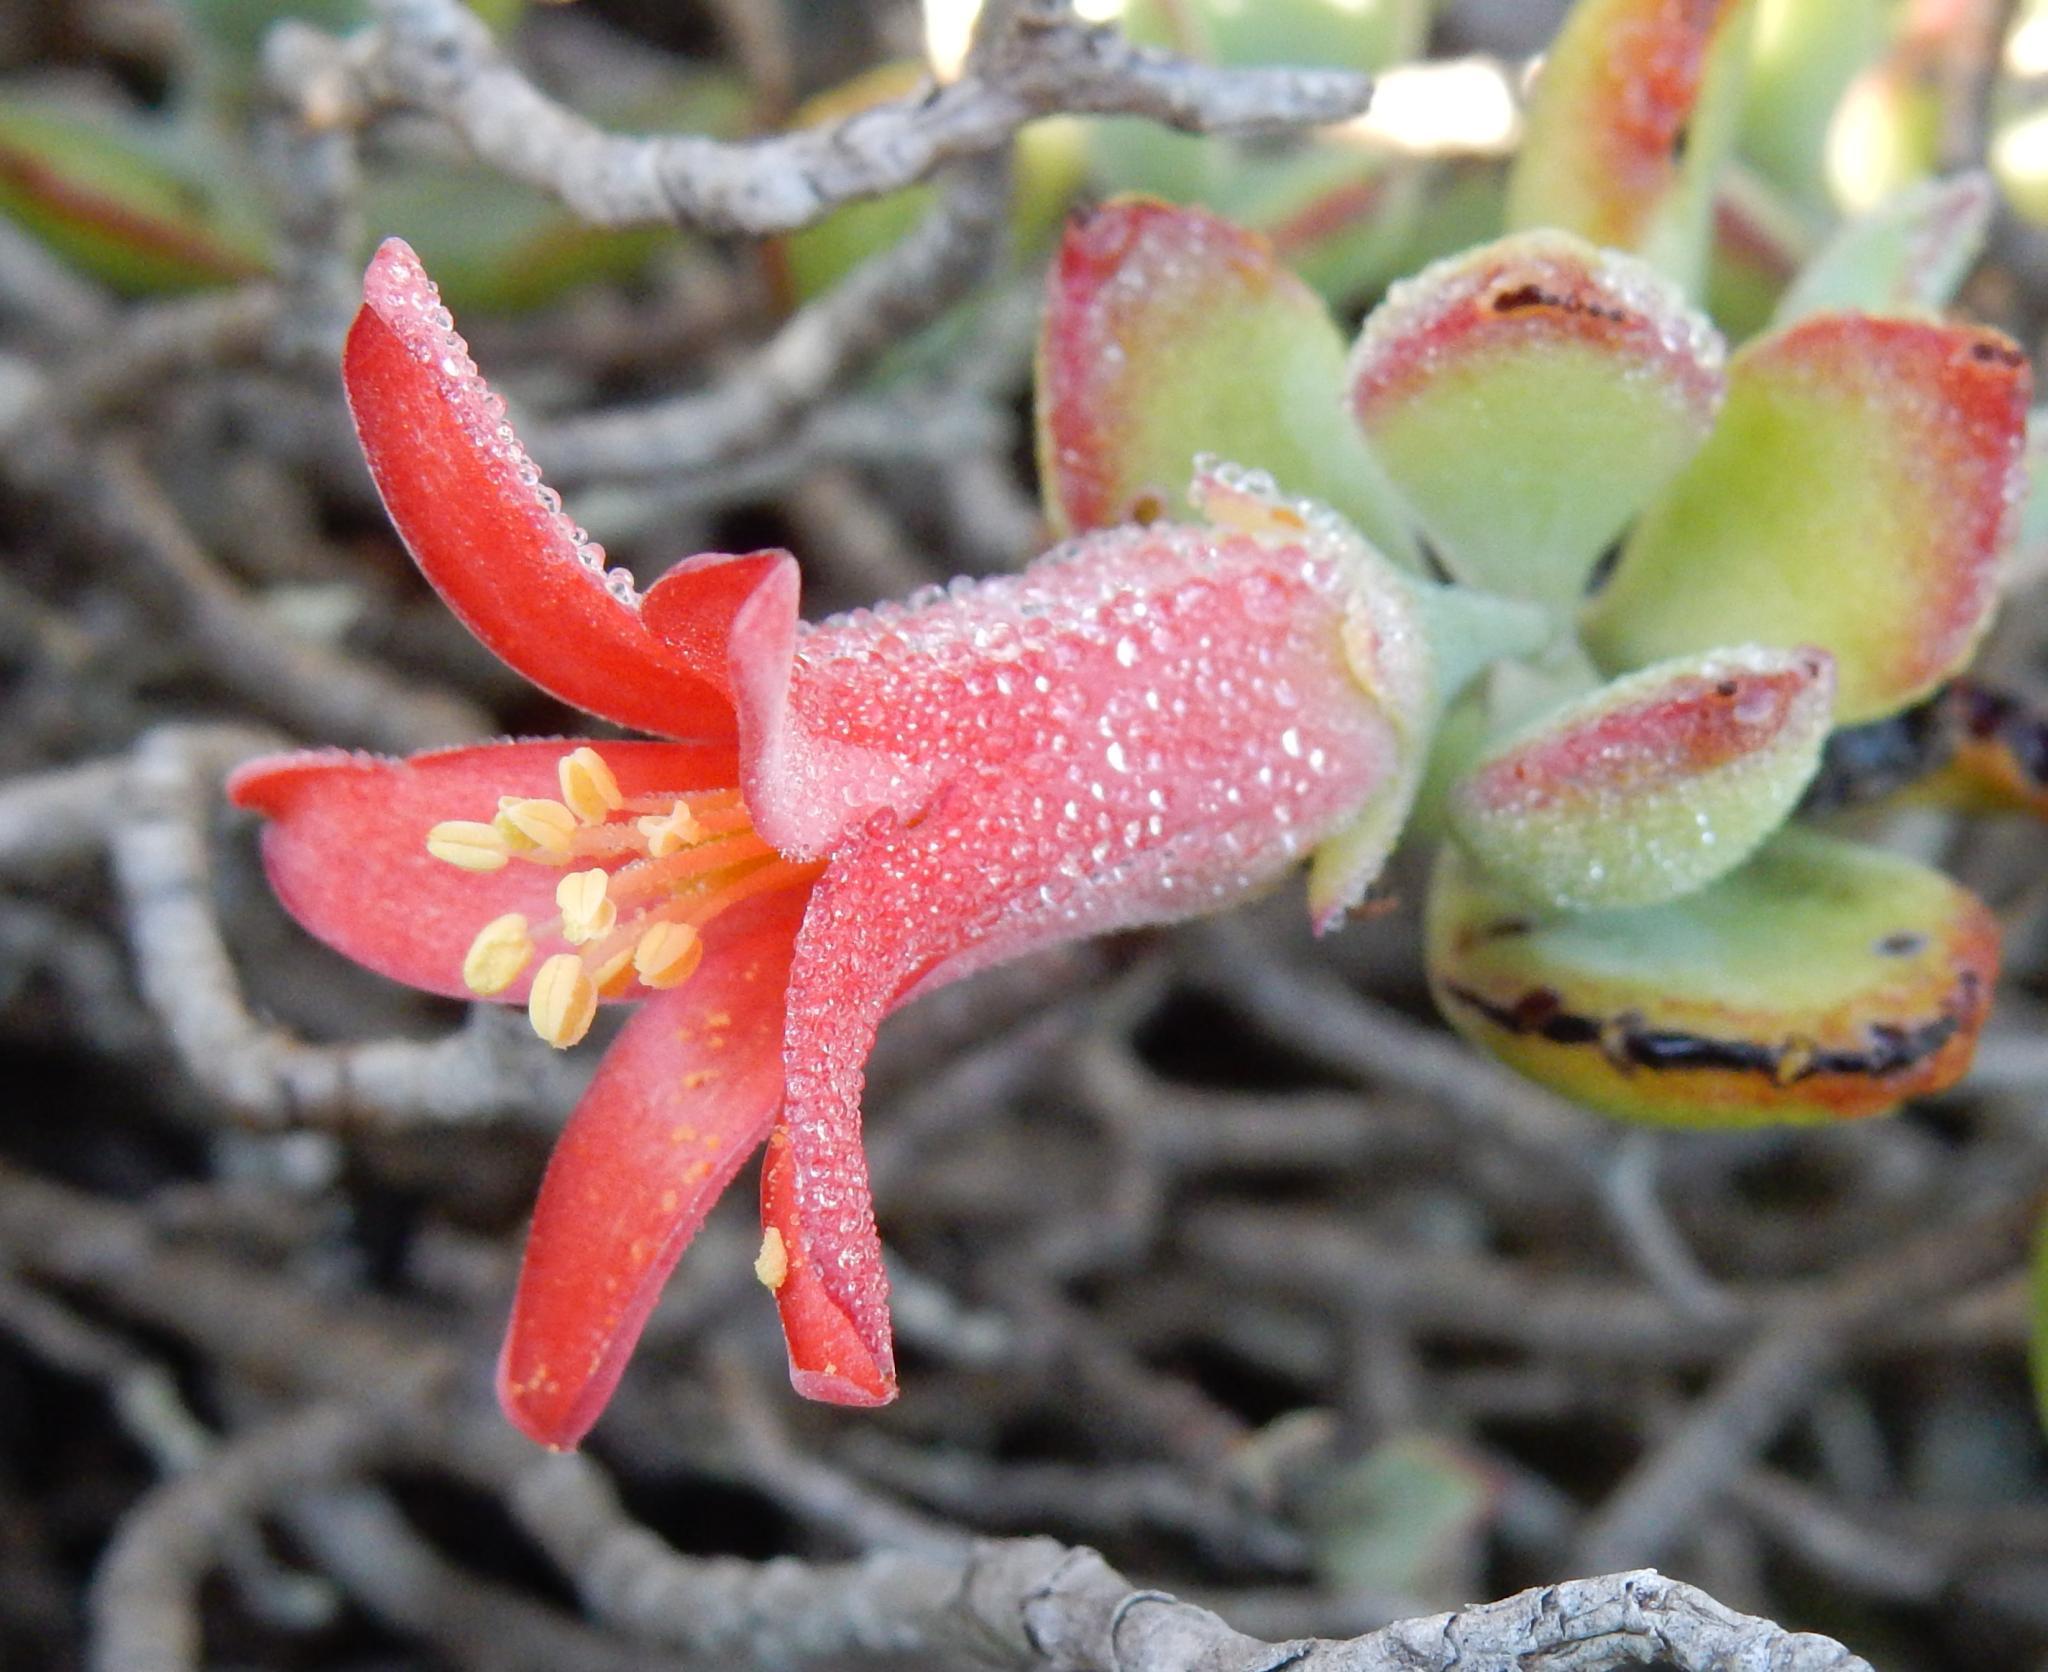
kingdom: Plantae
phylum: Tracheophyta
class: Magnoliopsida
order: Saxifragales
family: Crassulaceae
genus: Cotyledon
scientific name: Cotyledon woodii
